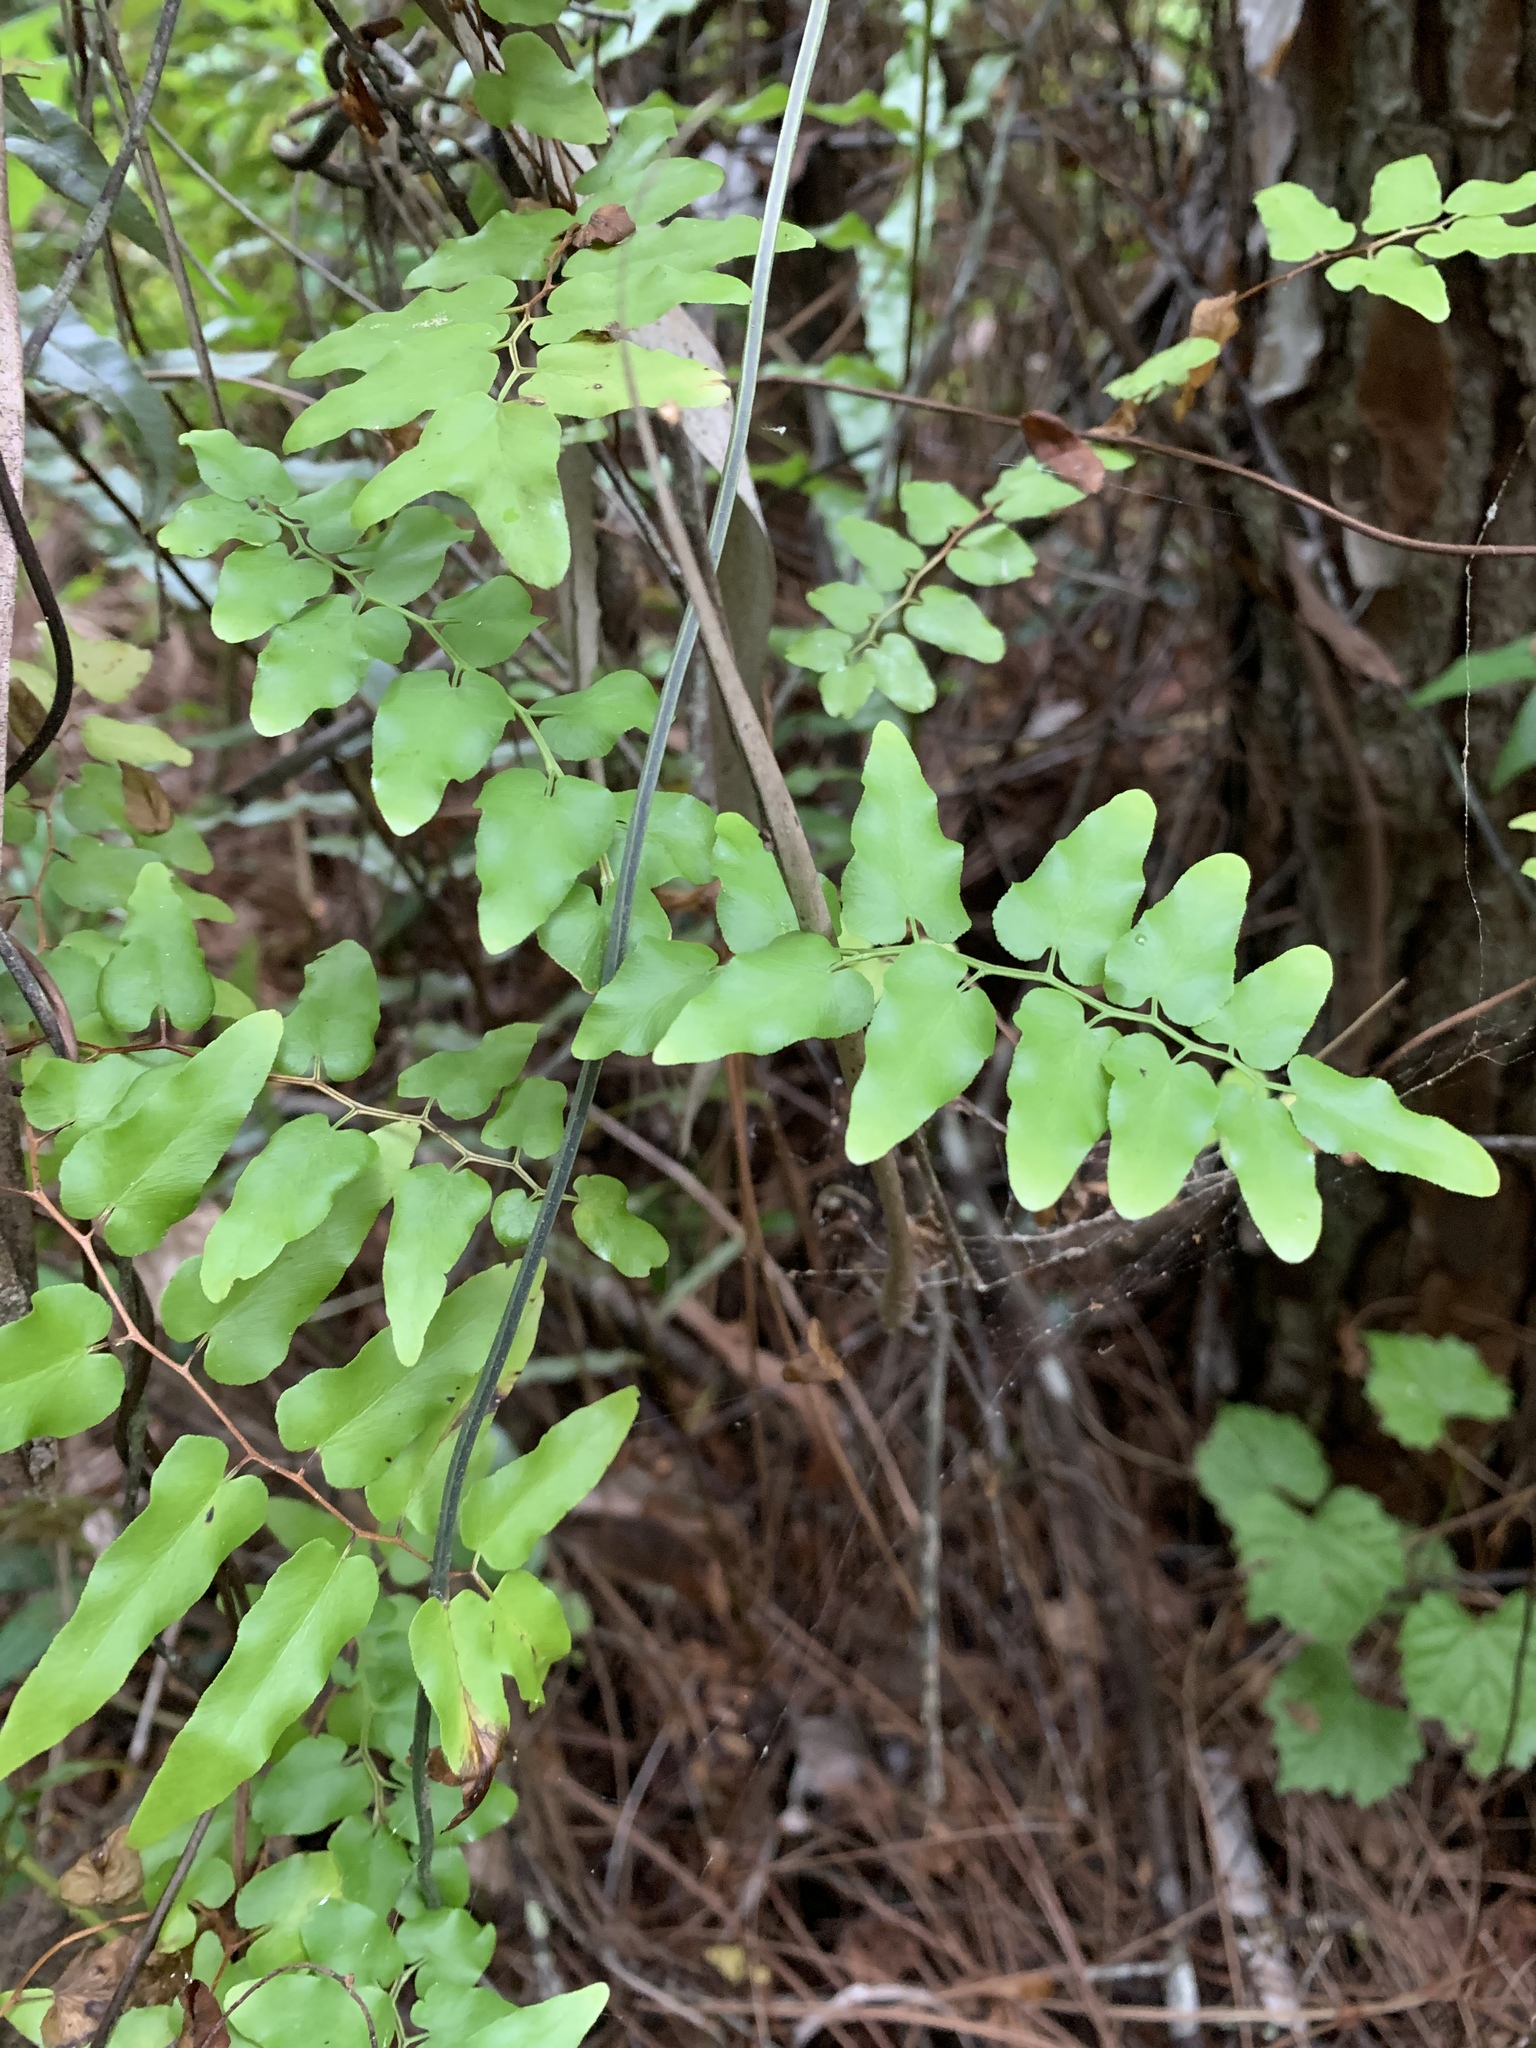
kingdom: Plantae
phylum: Tracheophyta
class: Polypodiopsida
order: Schizaeales
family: Lygodiaceae
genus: Lygodium
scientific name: Lygodium microphyllum
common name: Small-leaf climbing fern
